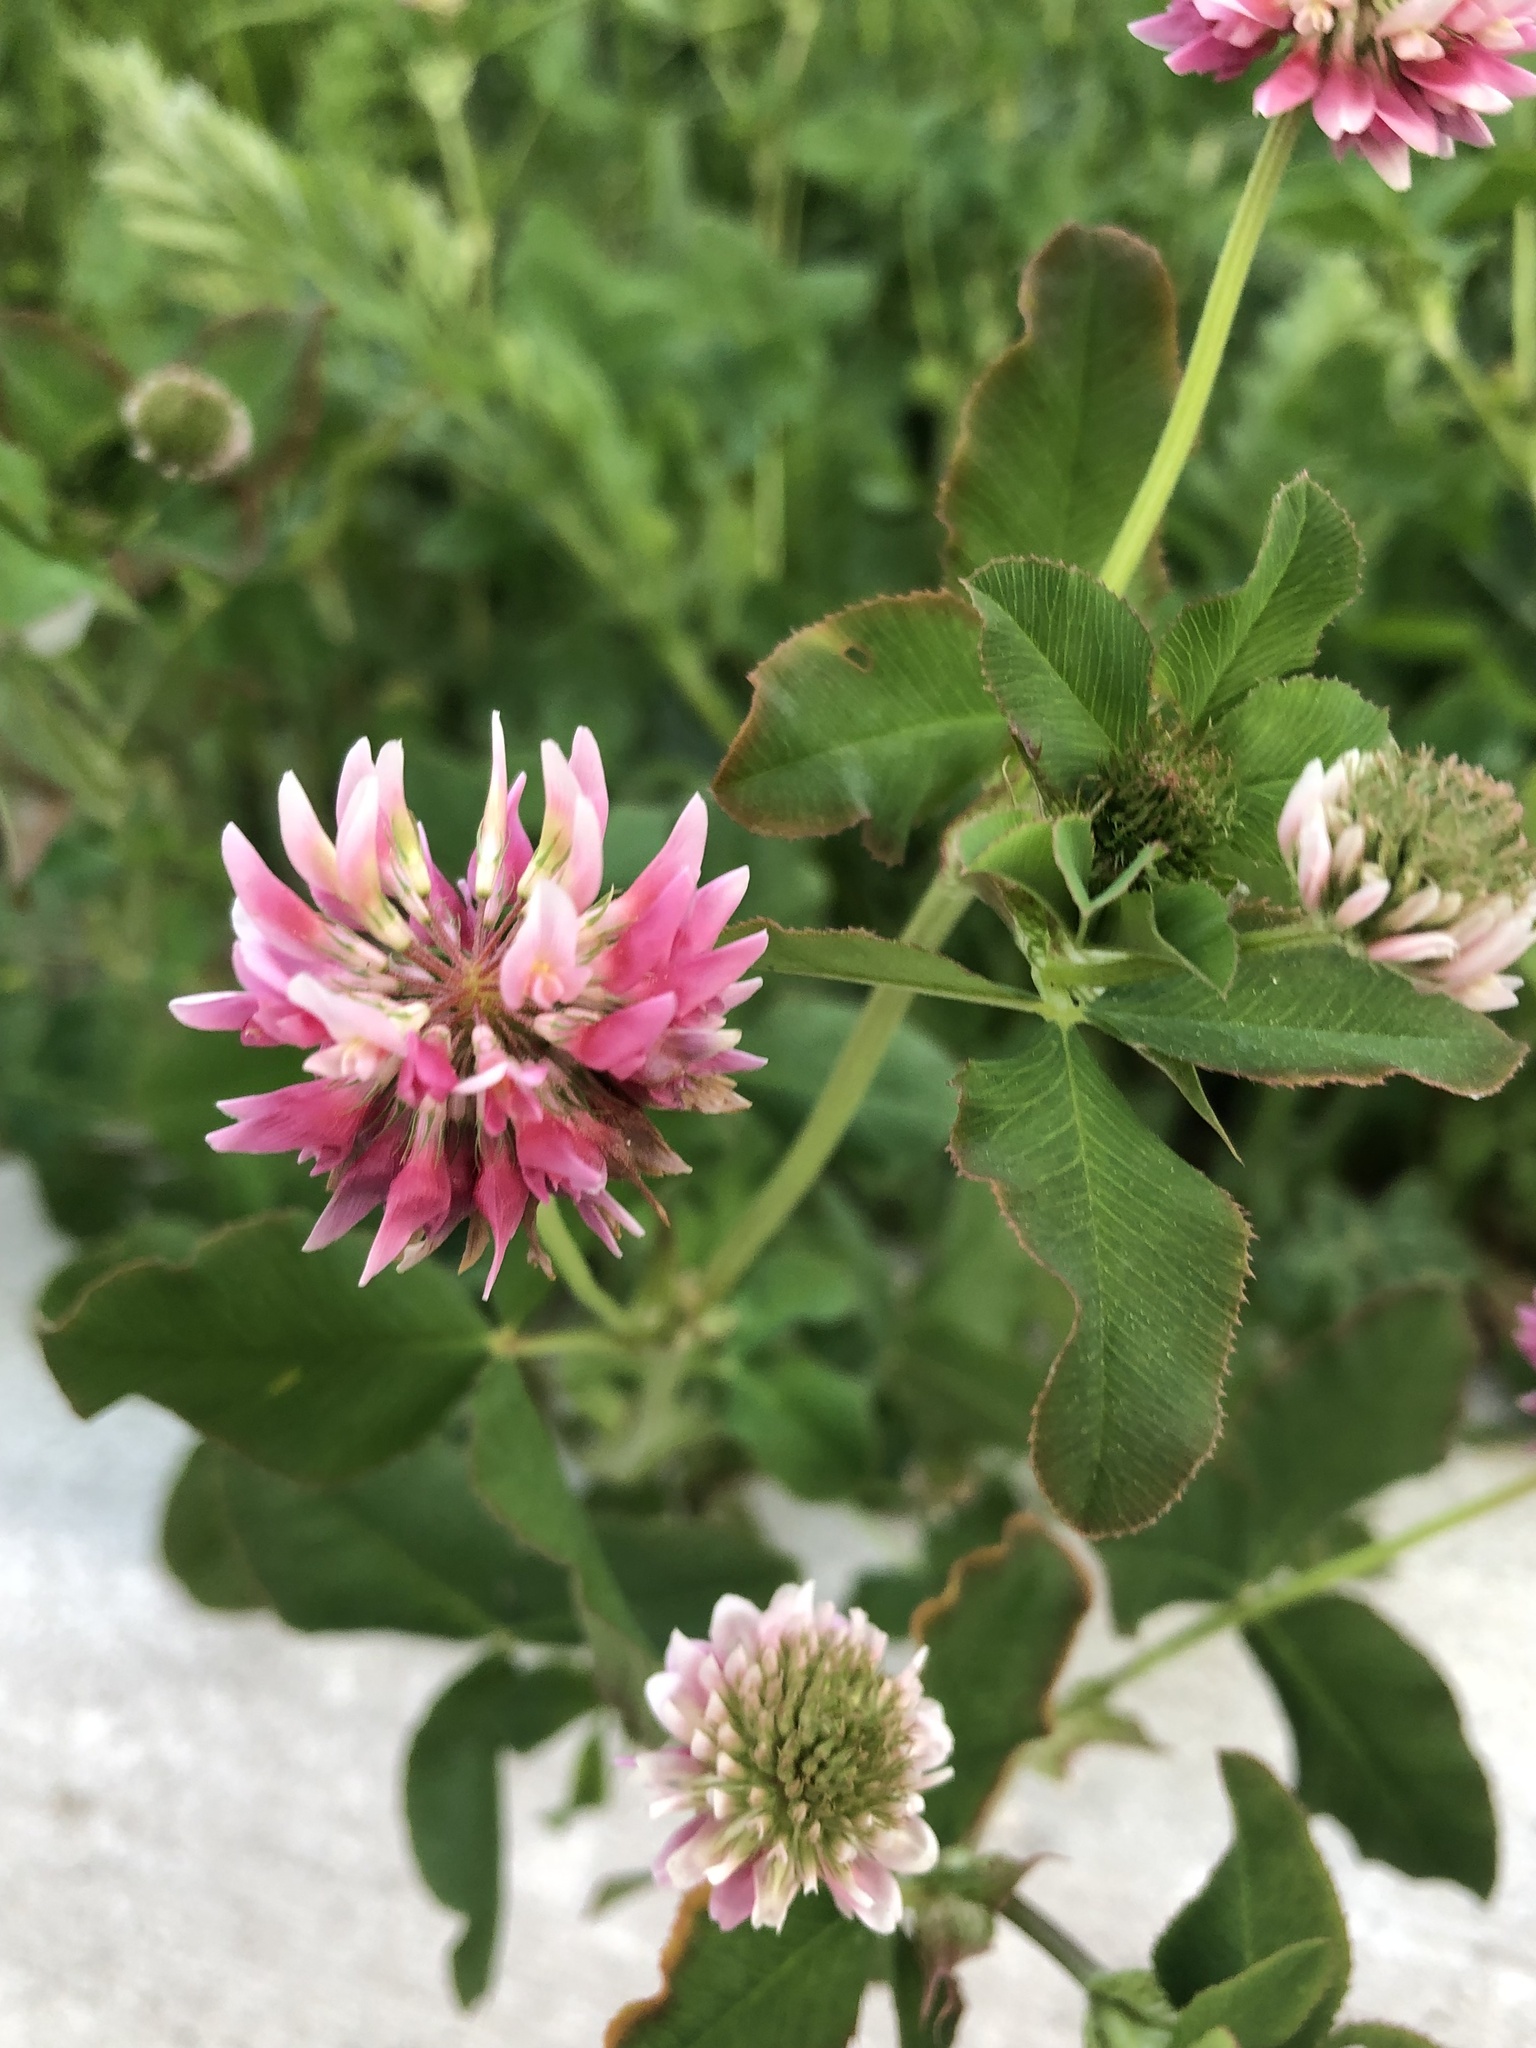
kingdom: Plantae
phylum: Tracheophyta
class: Magnoliopsida
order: Fabales
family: Fabaceae
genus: Trifolium
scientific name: Trifolium hybridum
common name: Alsike clover
